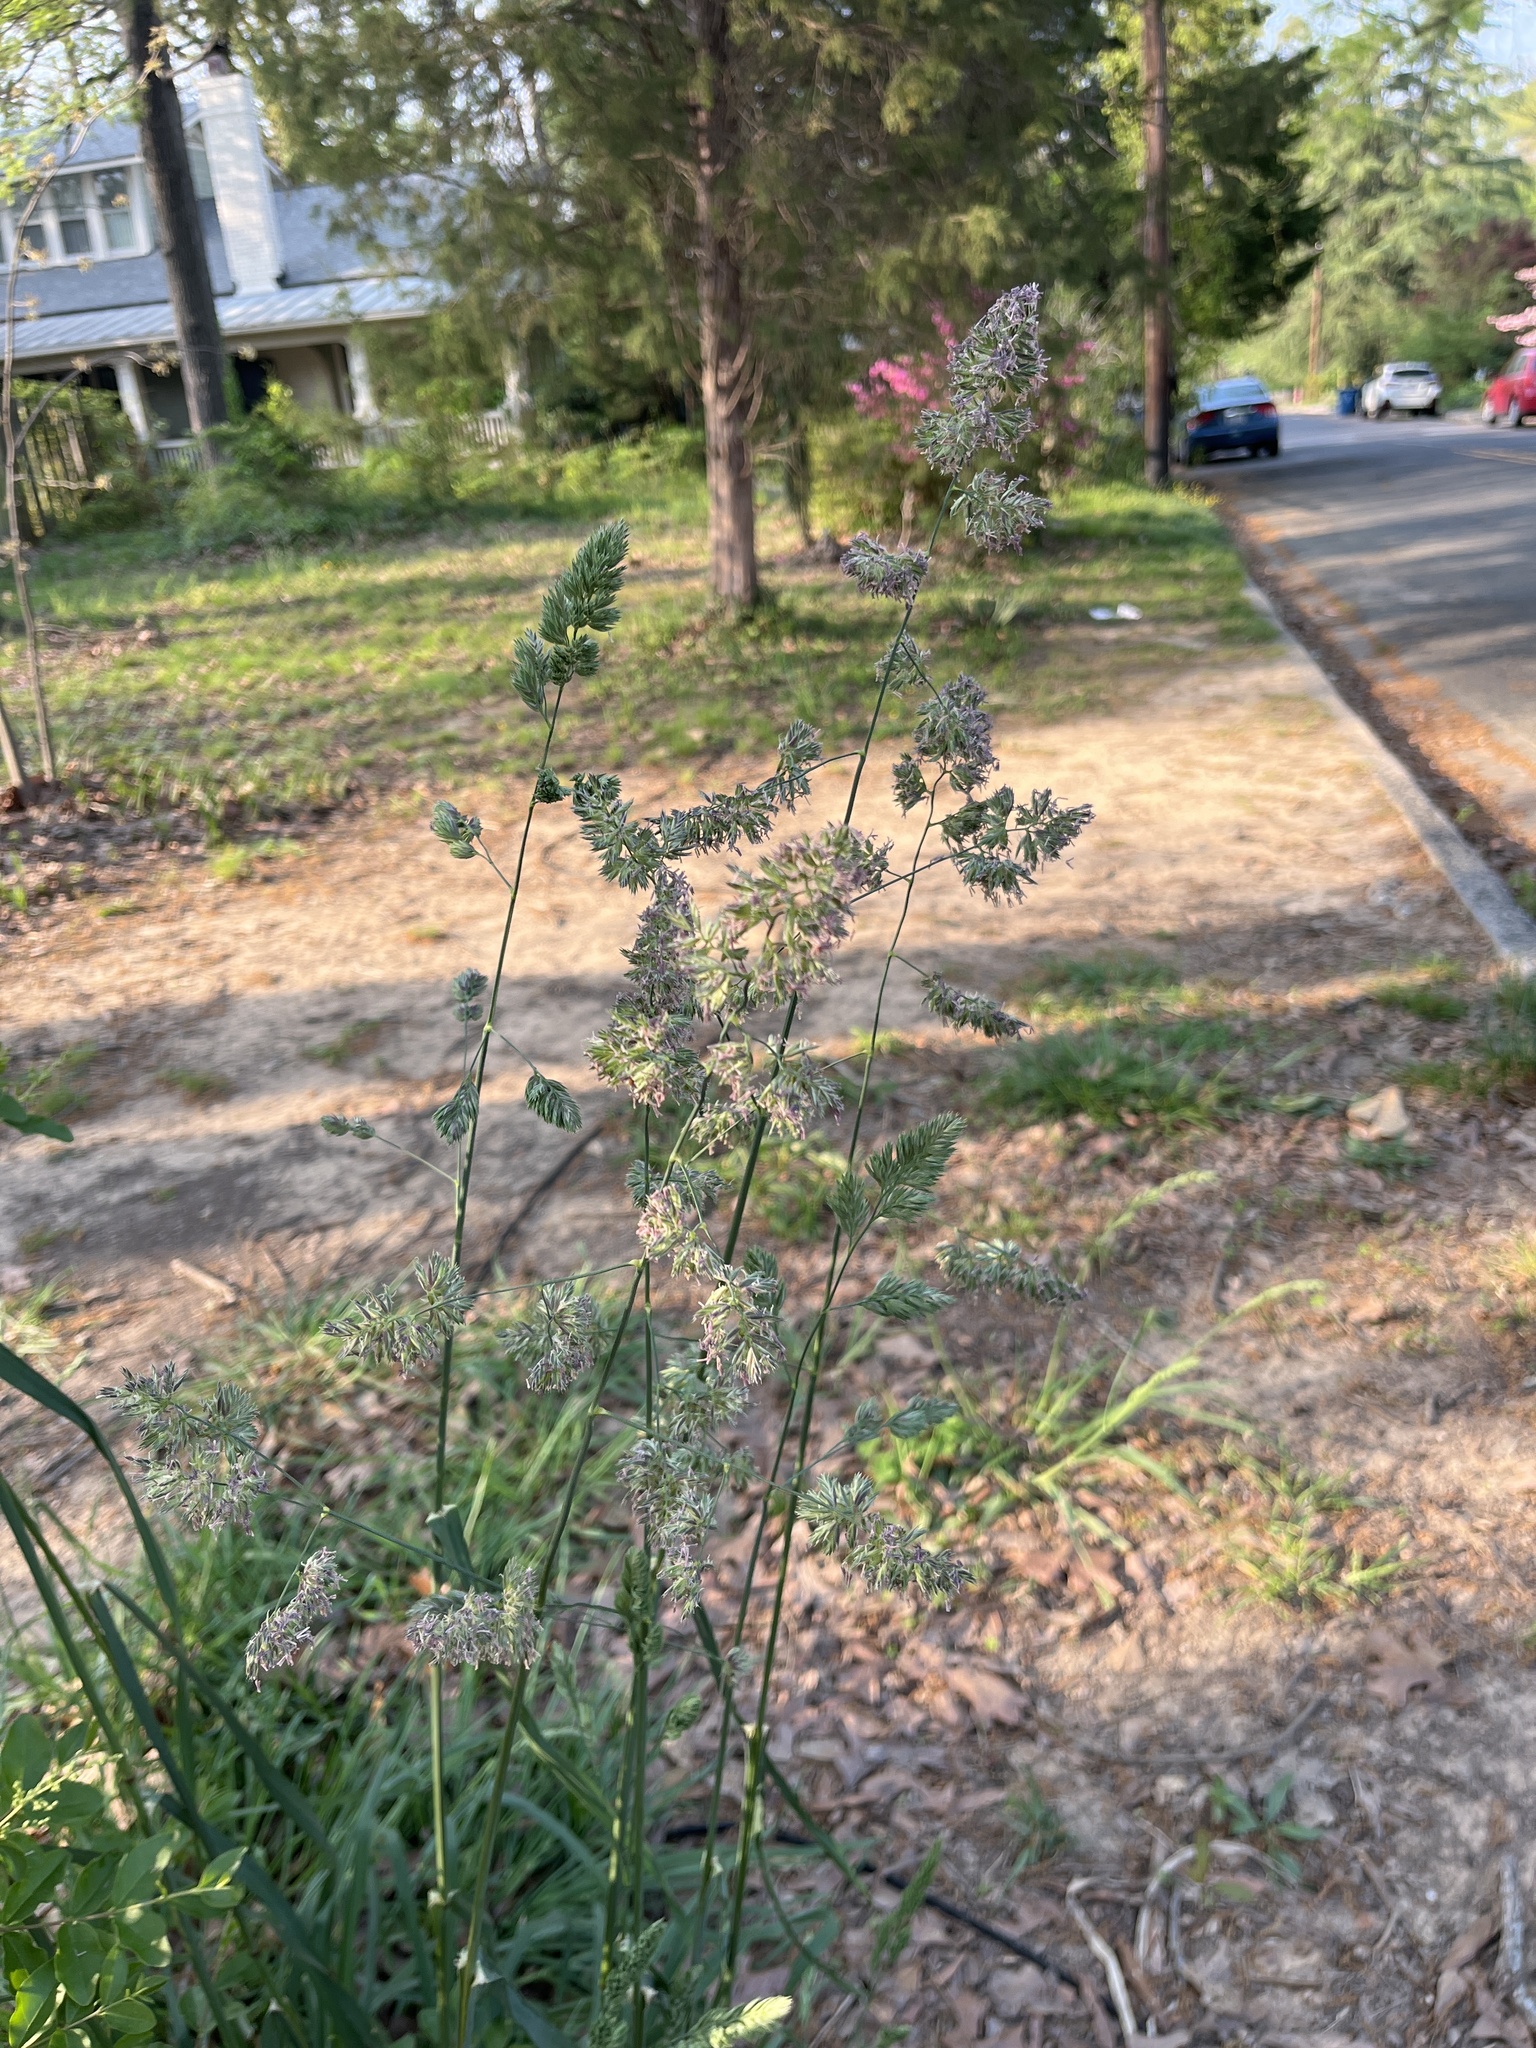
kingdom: Plantae
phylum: Tracheophyta
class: Liliopsida
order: Poales
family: Poaceae
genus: Dactylis
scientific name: Dactylis glomerata
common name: Orchardgrass
